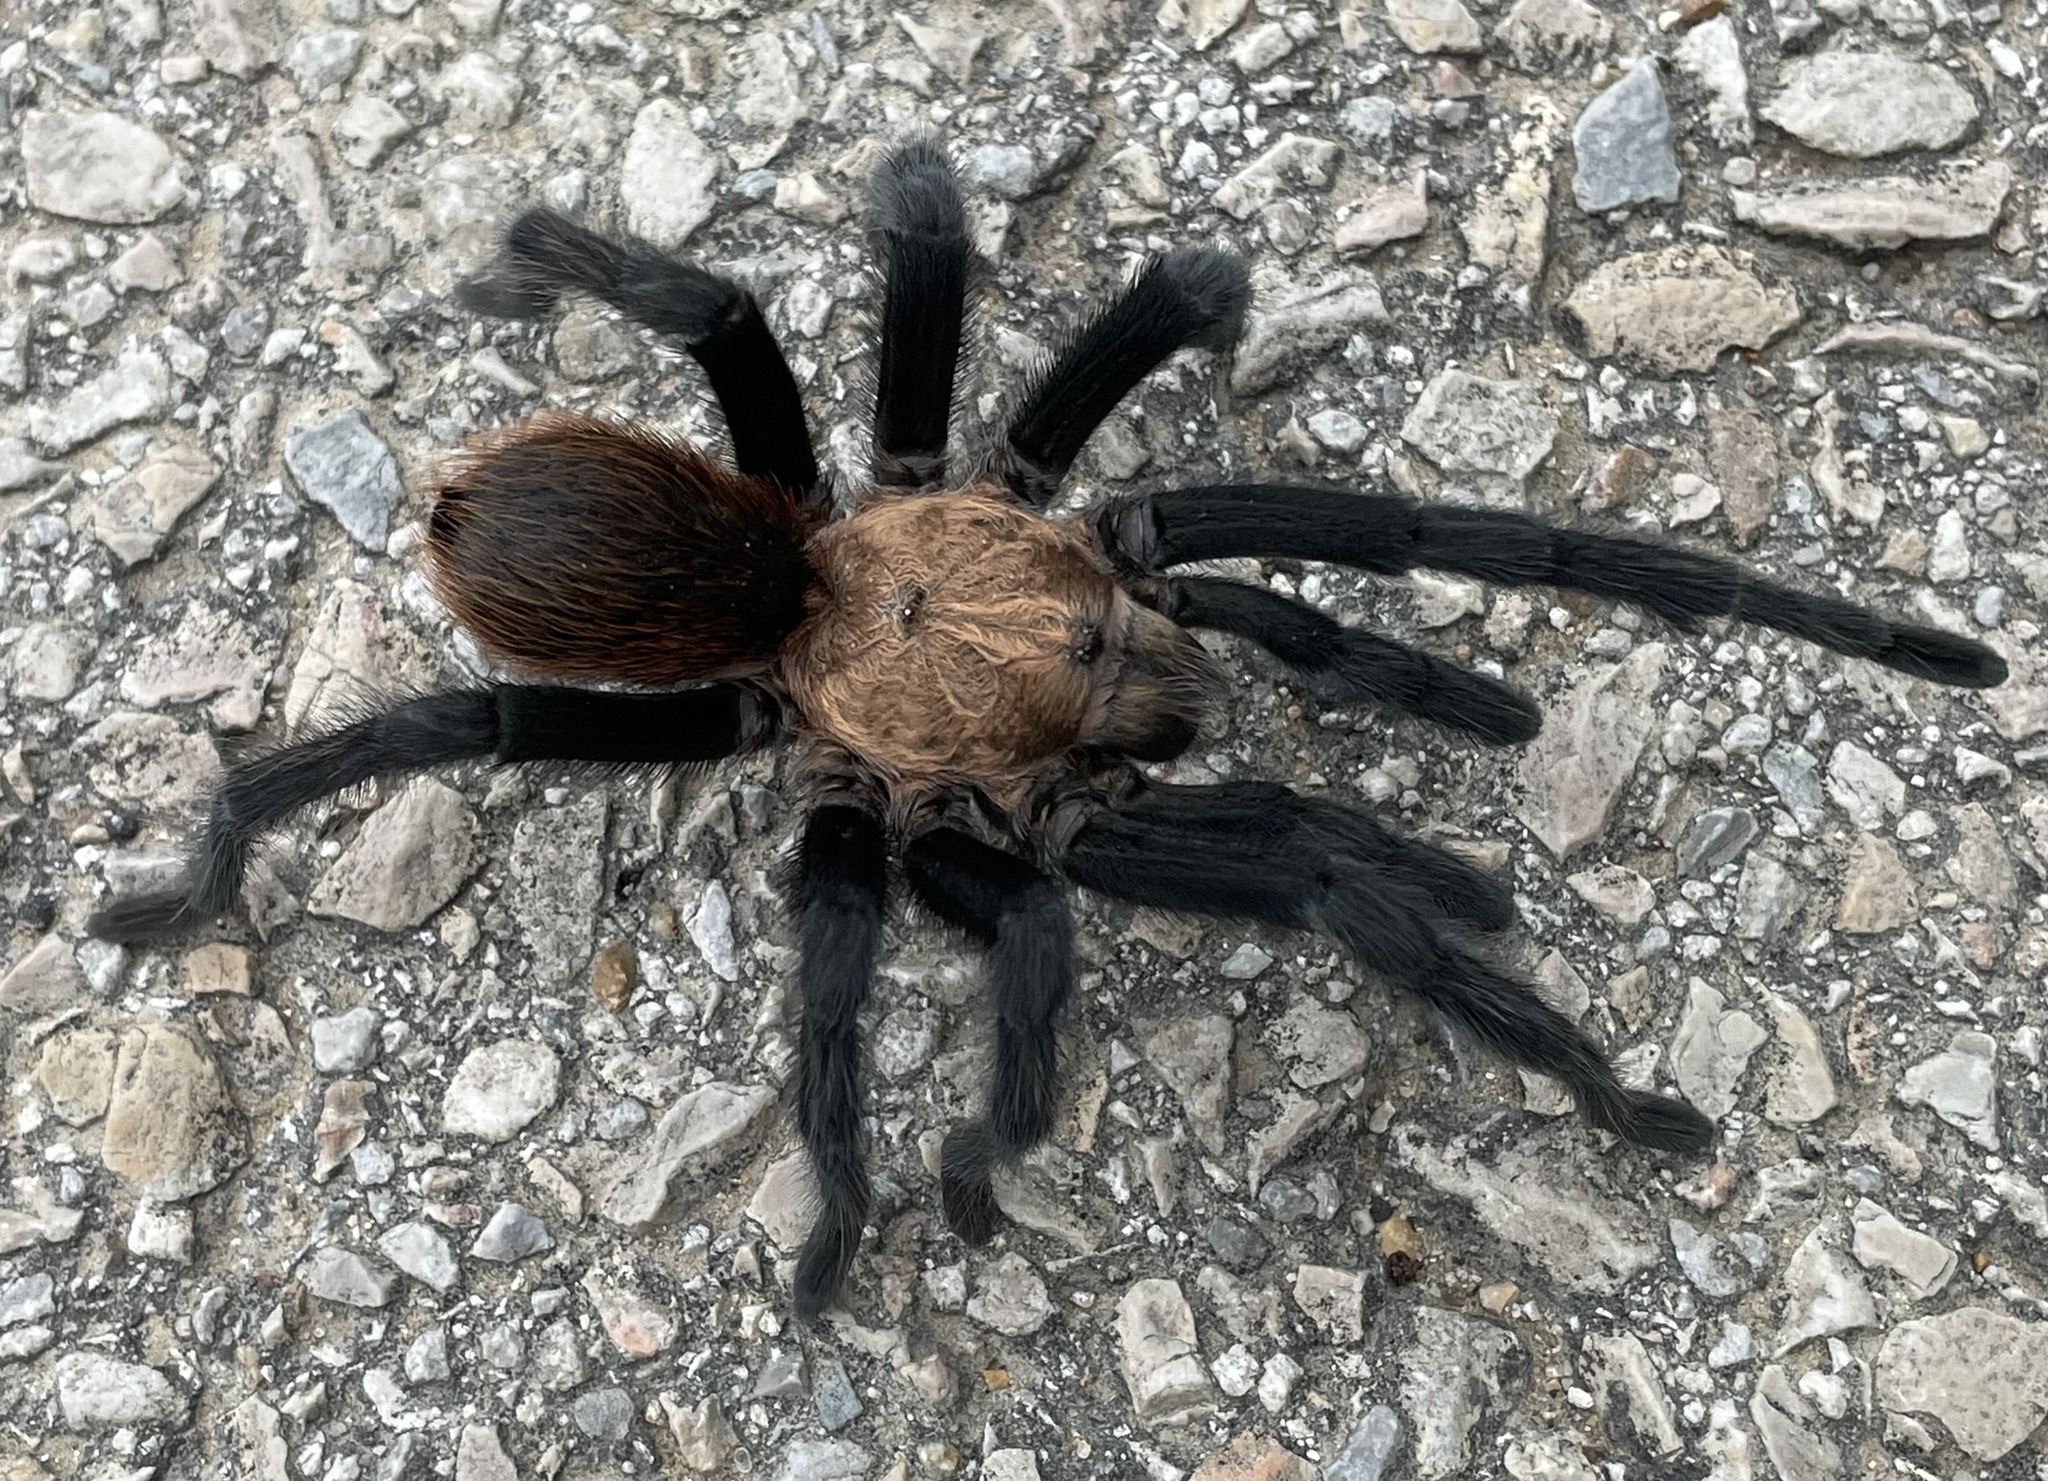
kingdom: Animalia
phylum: Arthropoda
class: Arachnida
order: Araneae
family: Theraphosidae
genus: Aphonopelma
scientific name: Aphonopelma hentzi
